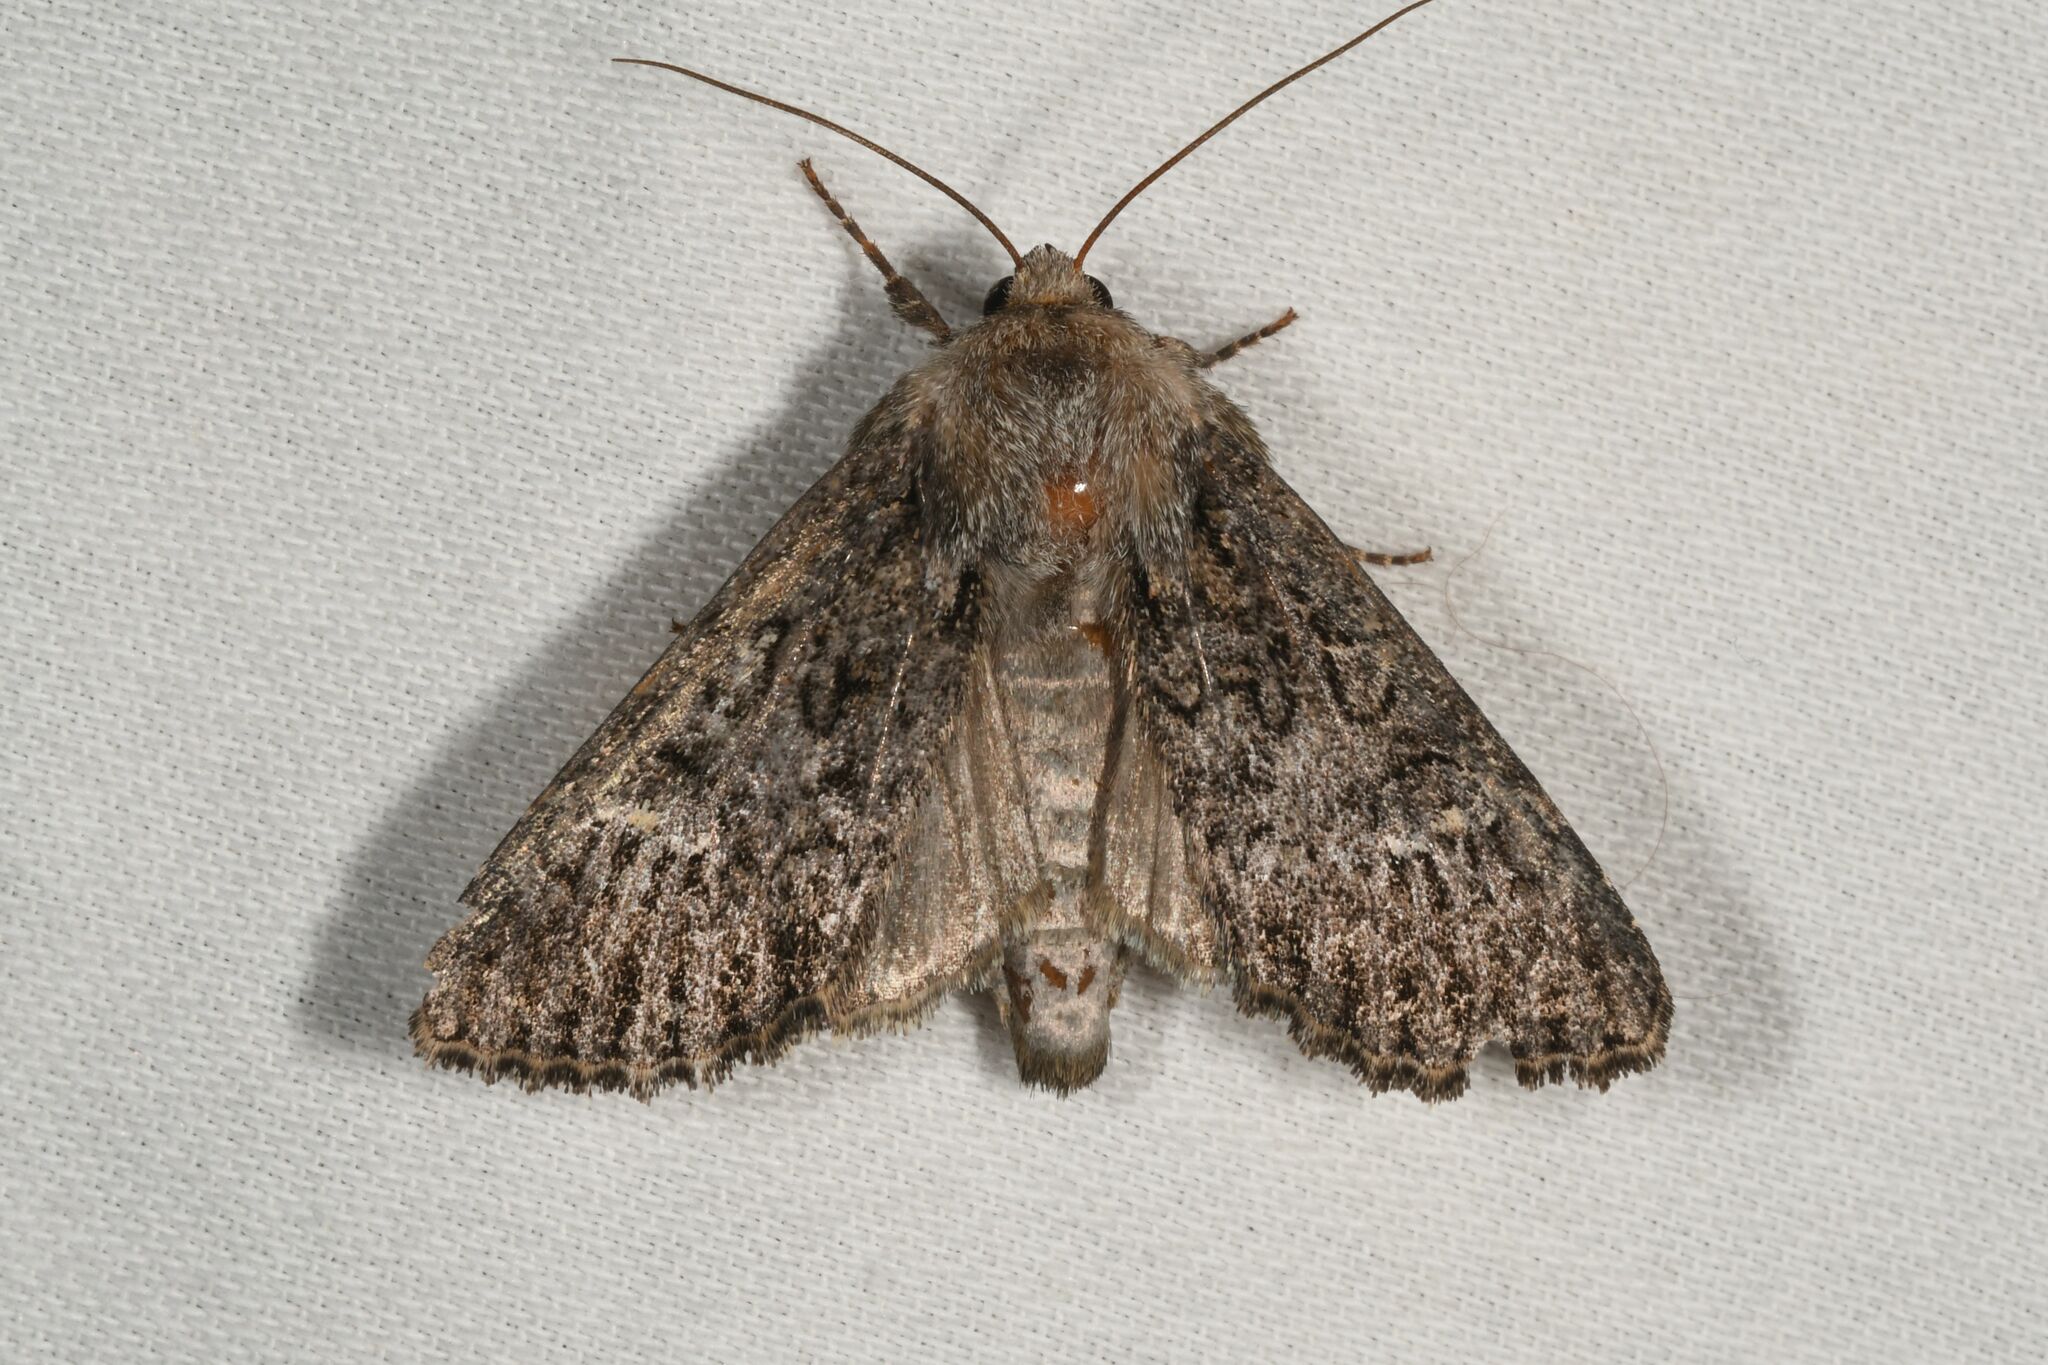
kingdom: Animalia
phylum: Arthropoda
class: Insecta
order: Lepidoptera
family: Noctuidae
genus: Apamea
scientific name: Apamea maillardi
